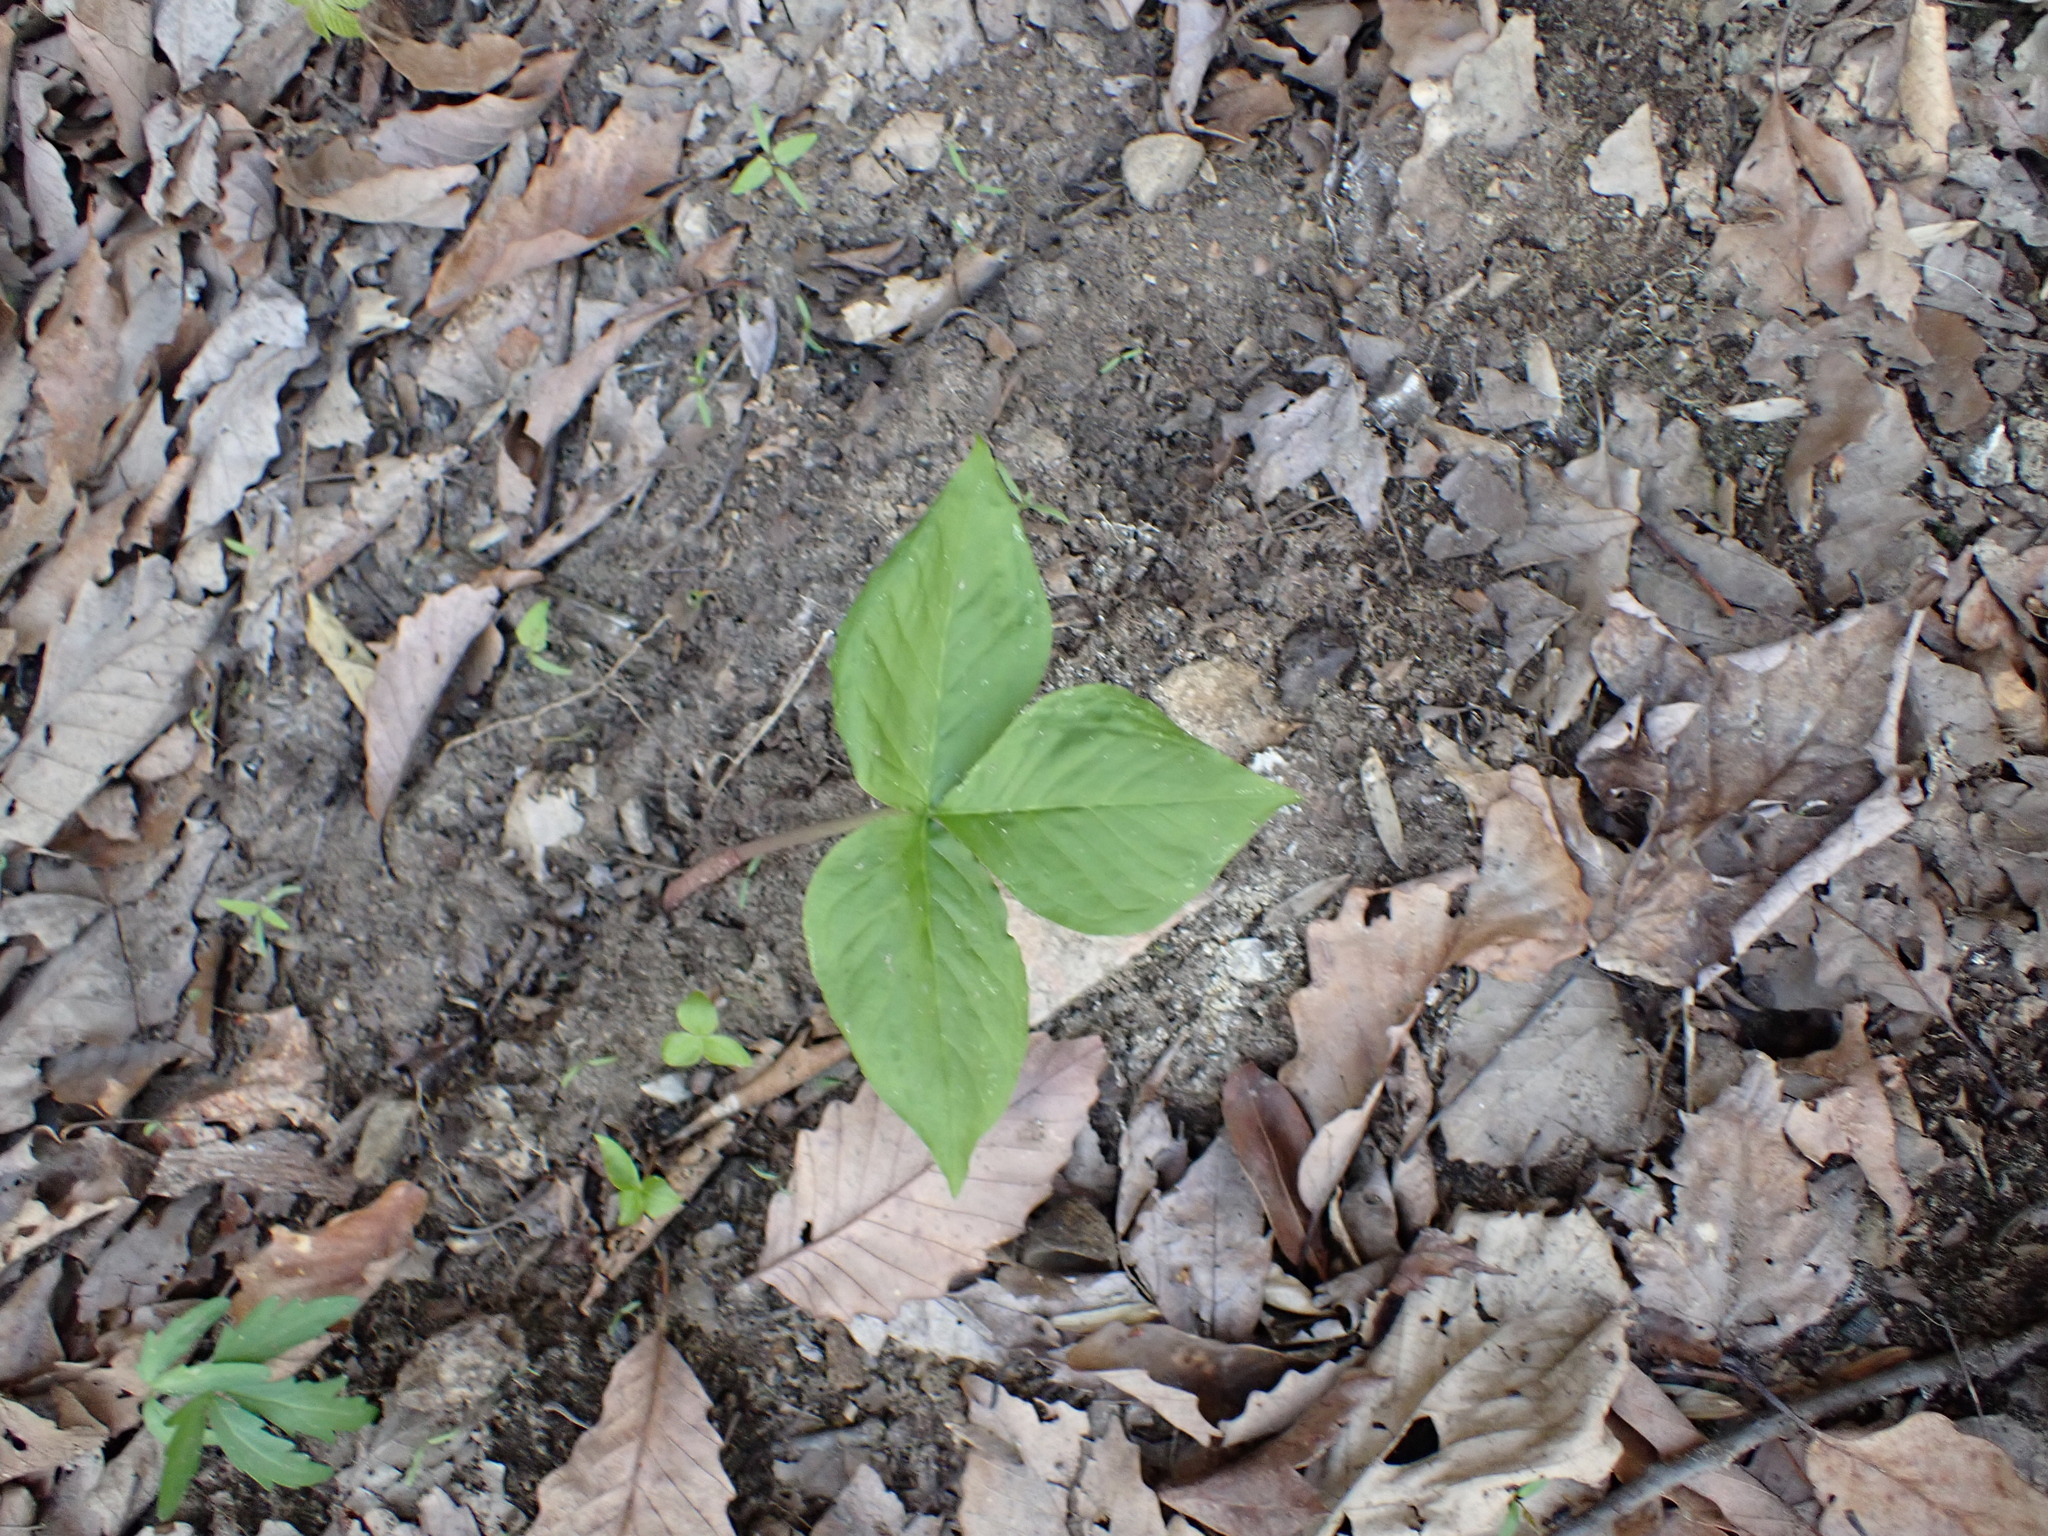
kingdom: Plantae
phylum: Tracheophyta
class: Liliopsida
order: Alismatales
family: Araceae
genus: Arisaema
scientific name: Arisaema triphyllum
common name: Jack-in-the-pulpit
